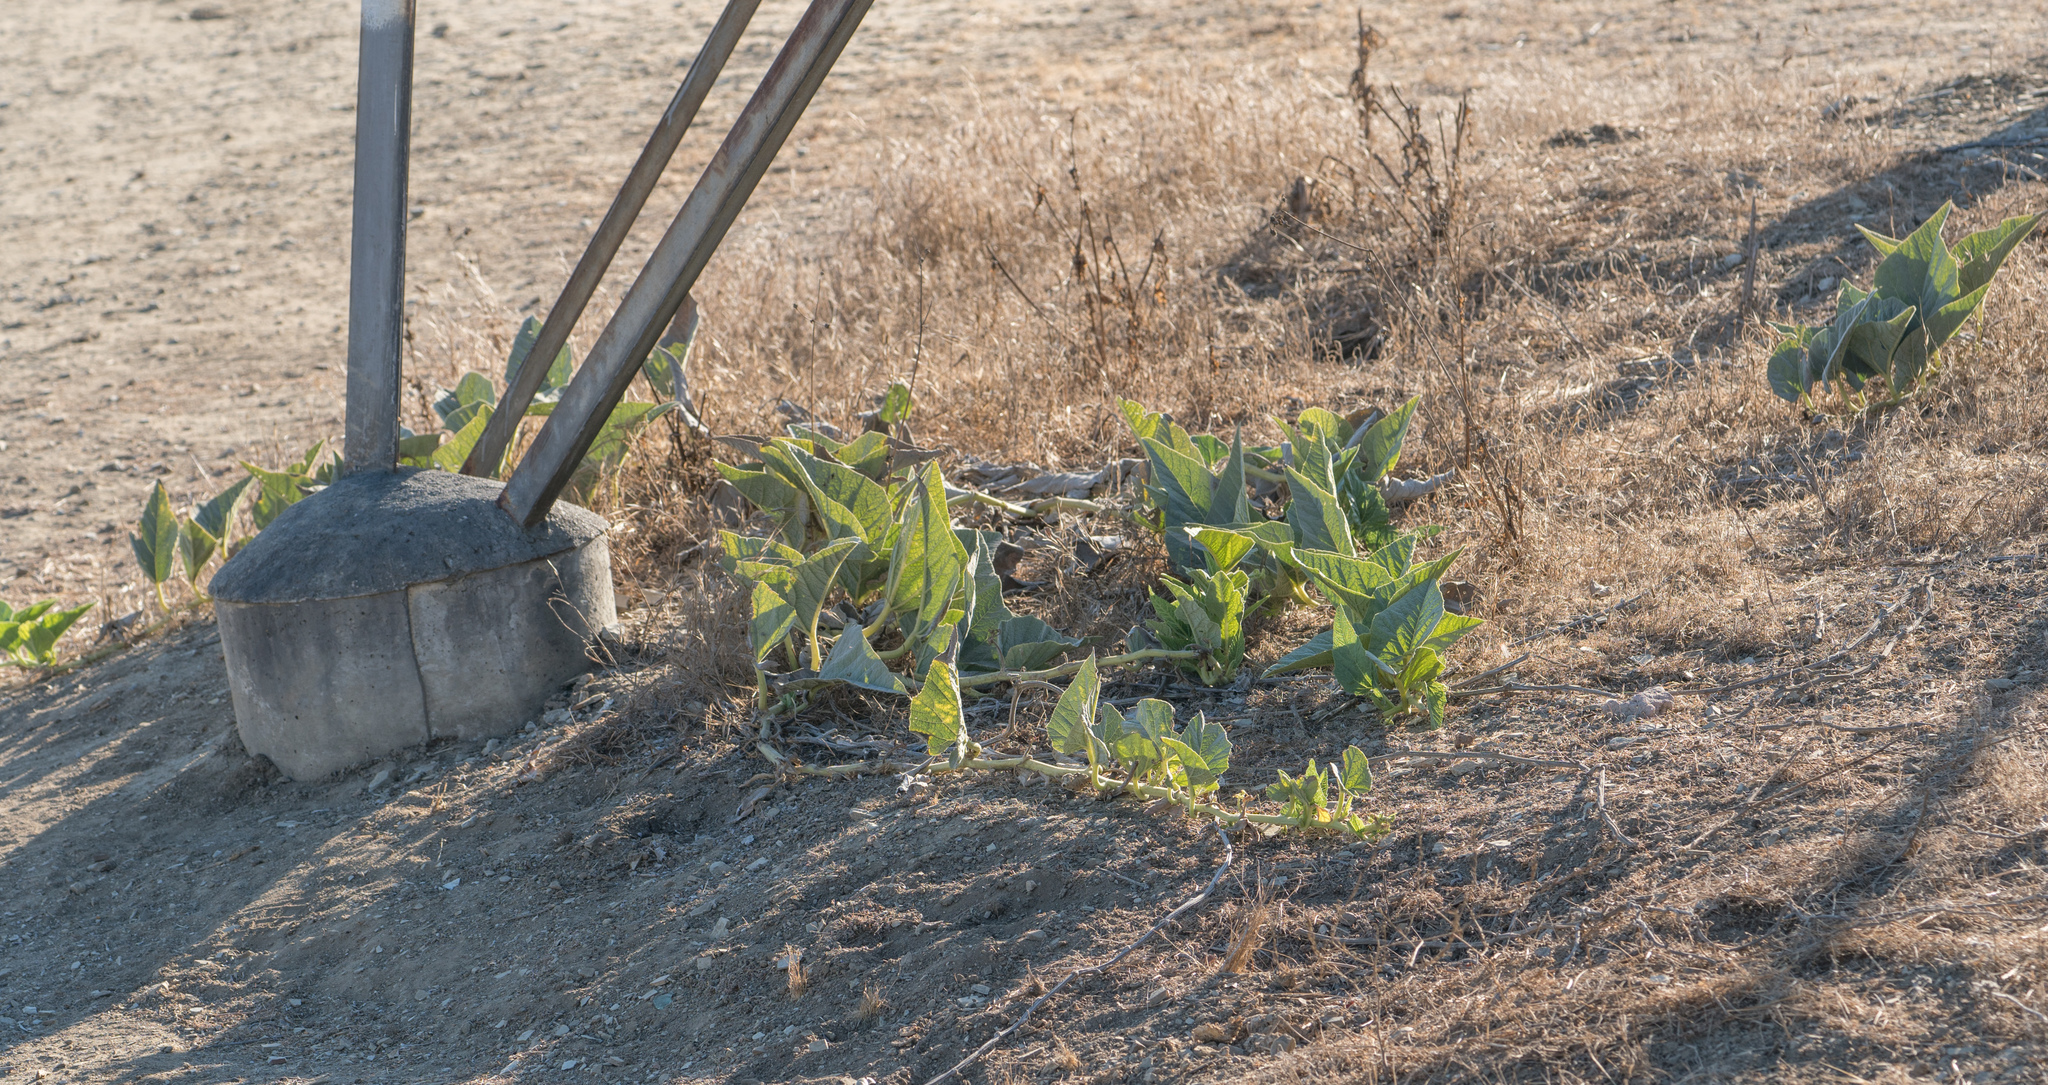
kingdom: Plantae
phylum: Tracheophyta
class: Magnoliopsida
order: Cucurbitales
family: Cucurbitaceae
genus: Cucurbita
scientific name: Cucurbita foetidissima
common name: Buffalo gourd
